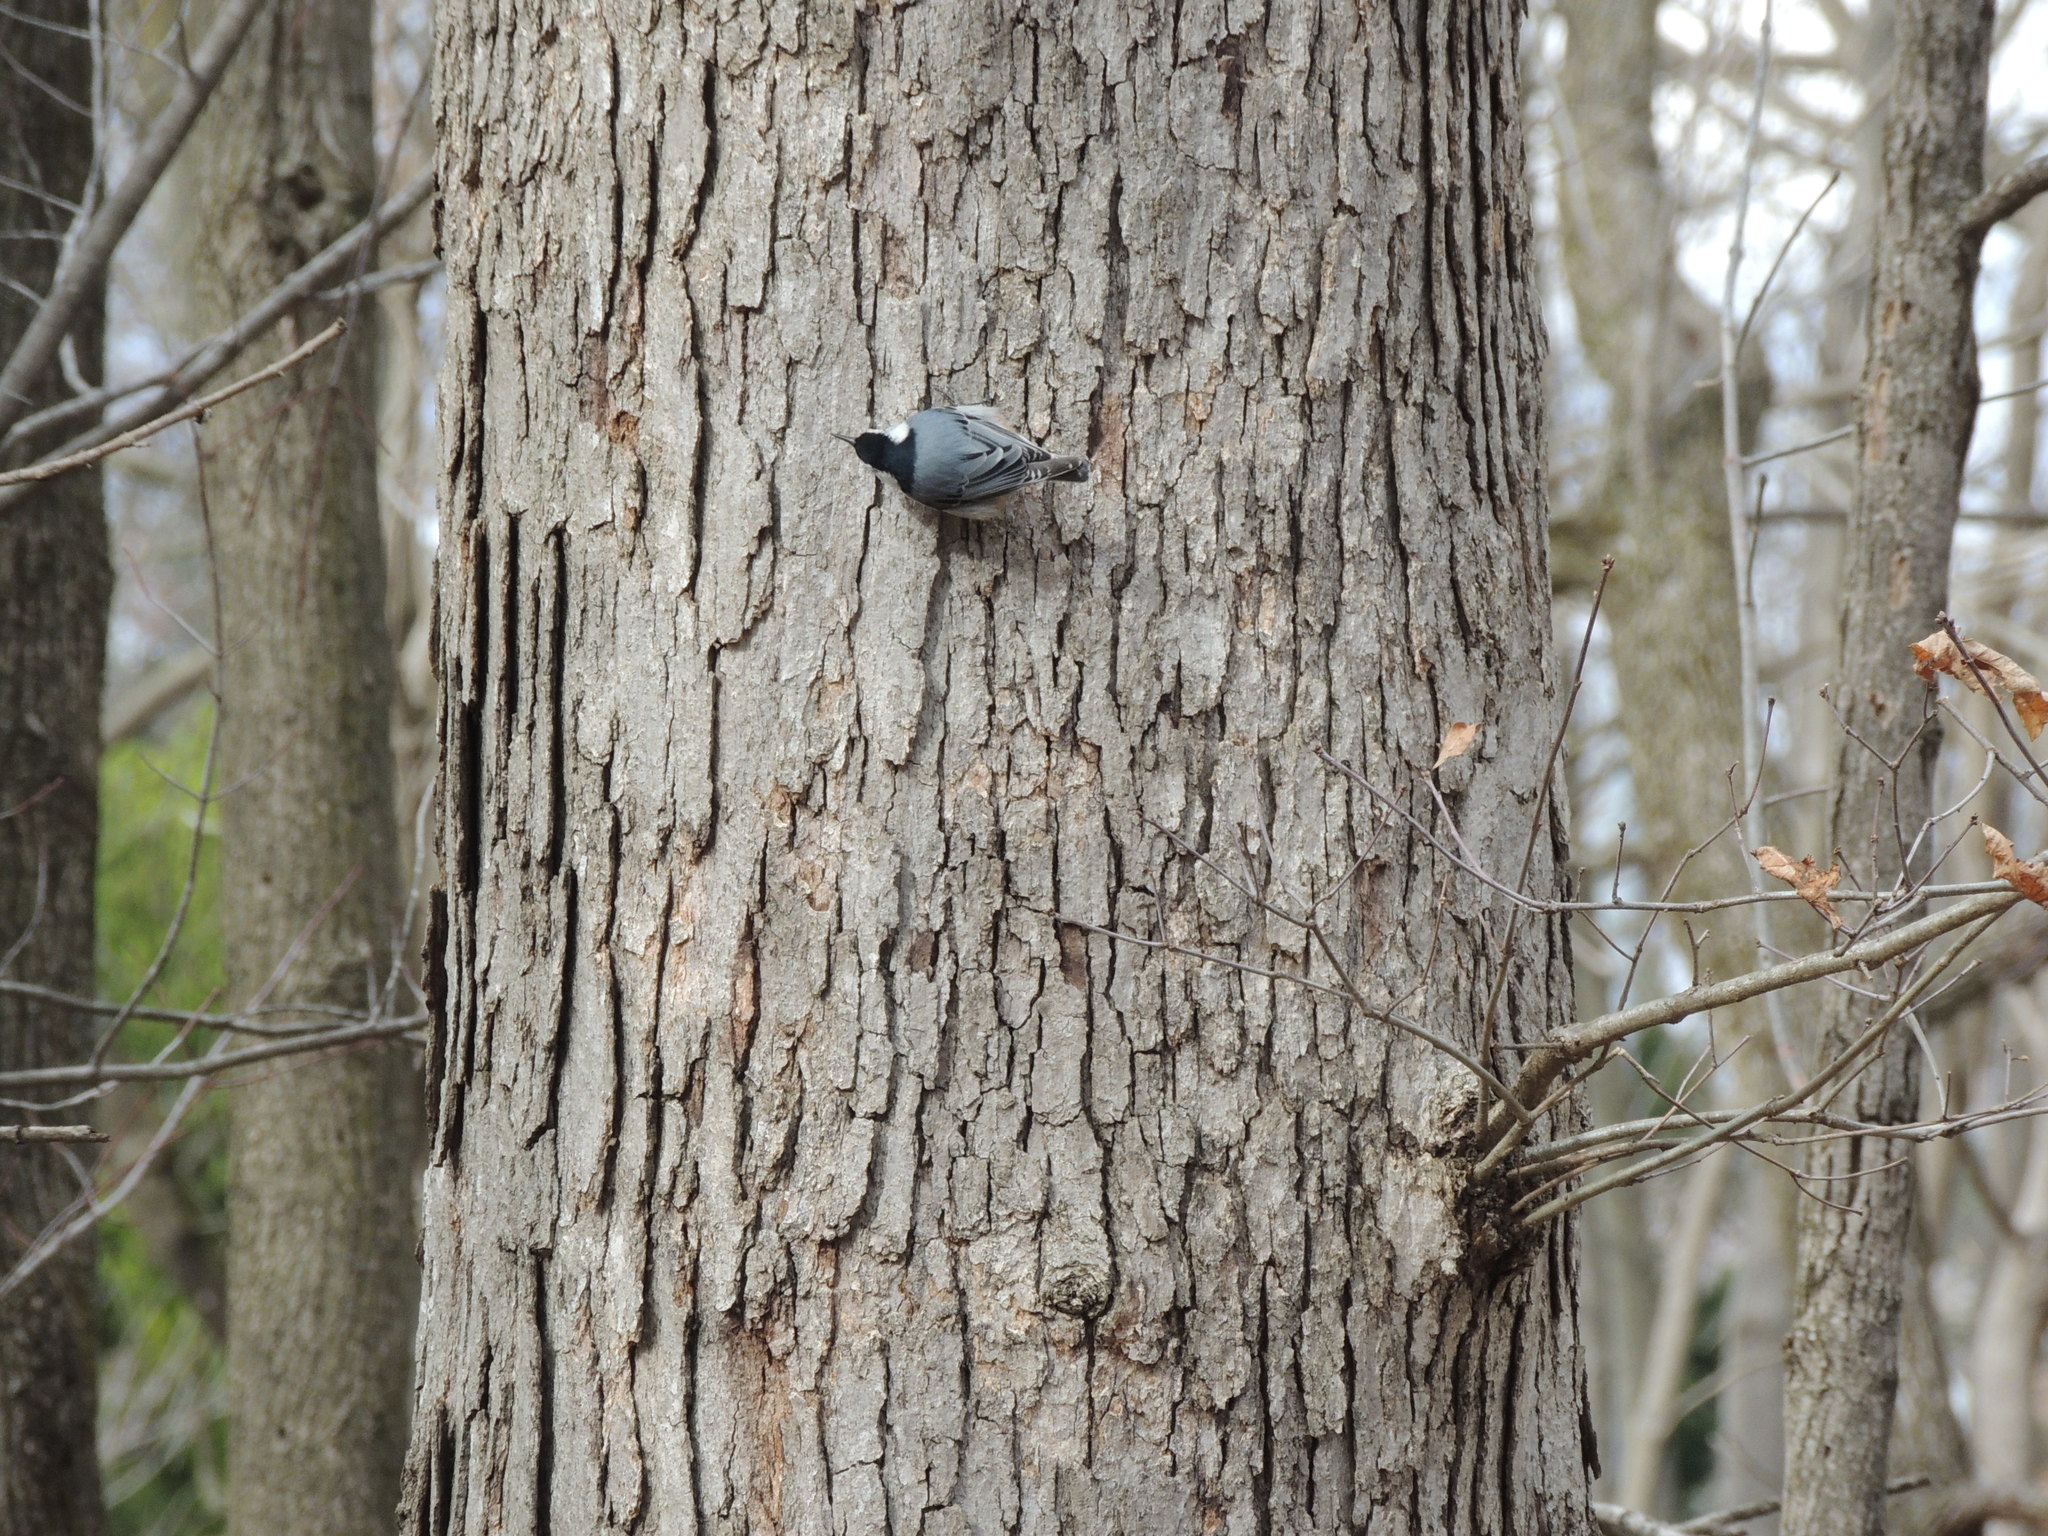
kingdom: Animalia
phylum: Chordata
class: Aves
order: Passeriformes
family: Sittidae
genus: Sitta
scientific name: Sitta carolinensis
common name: White-breasted nuthatch
